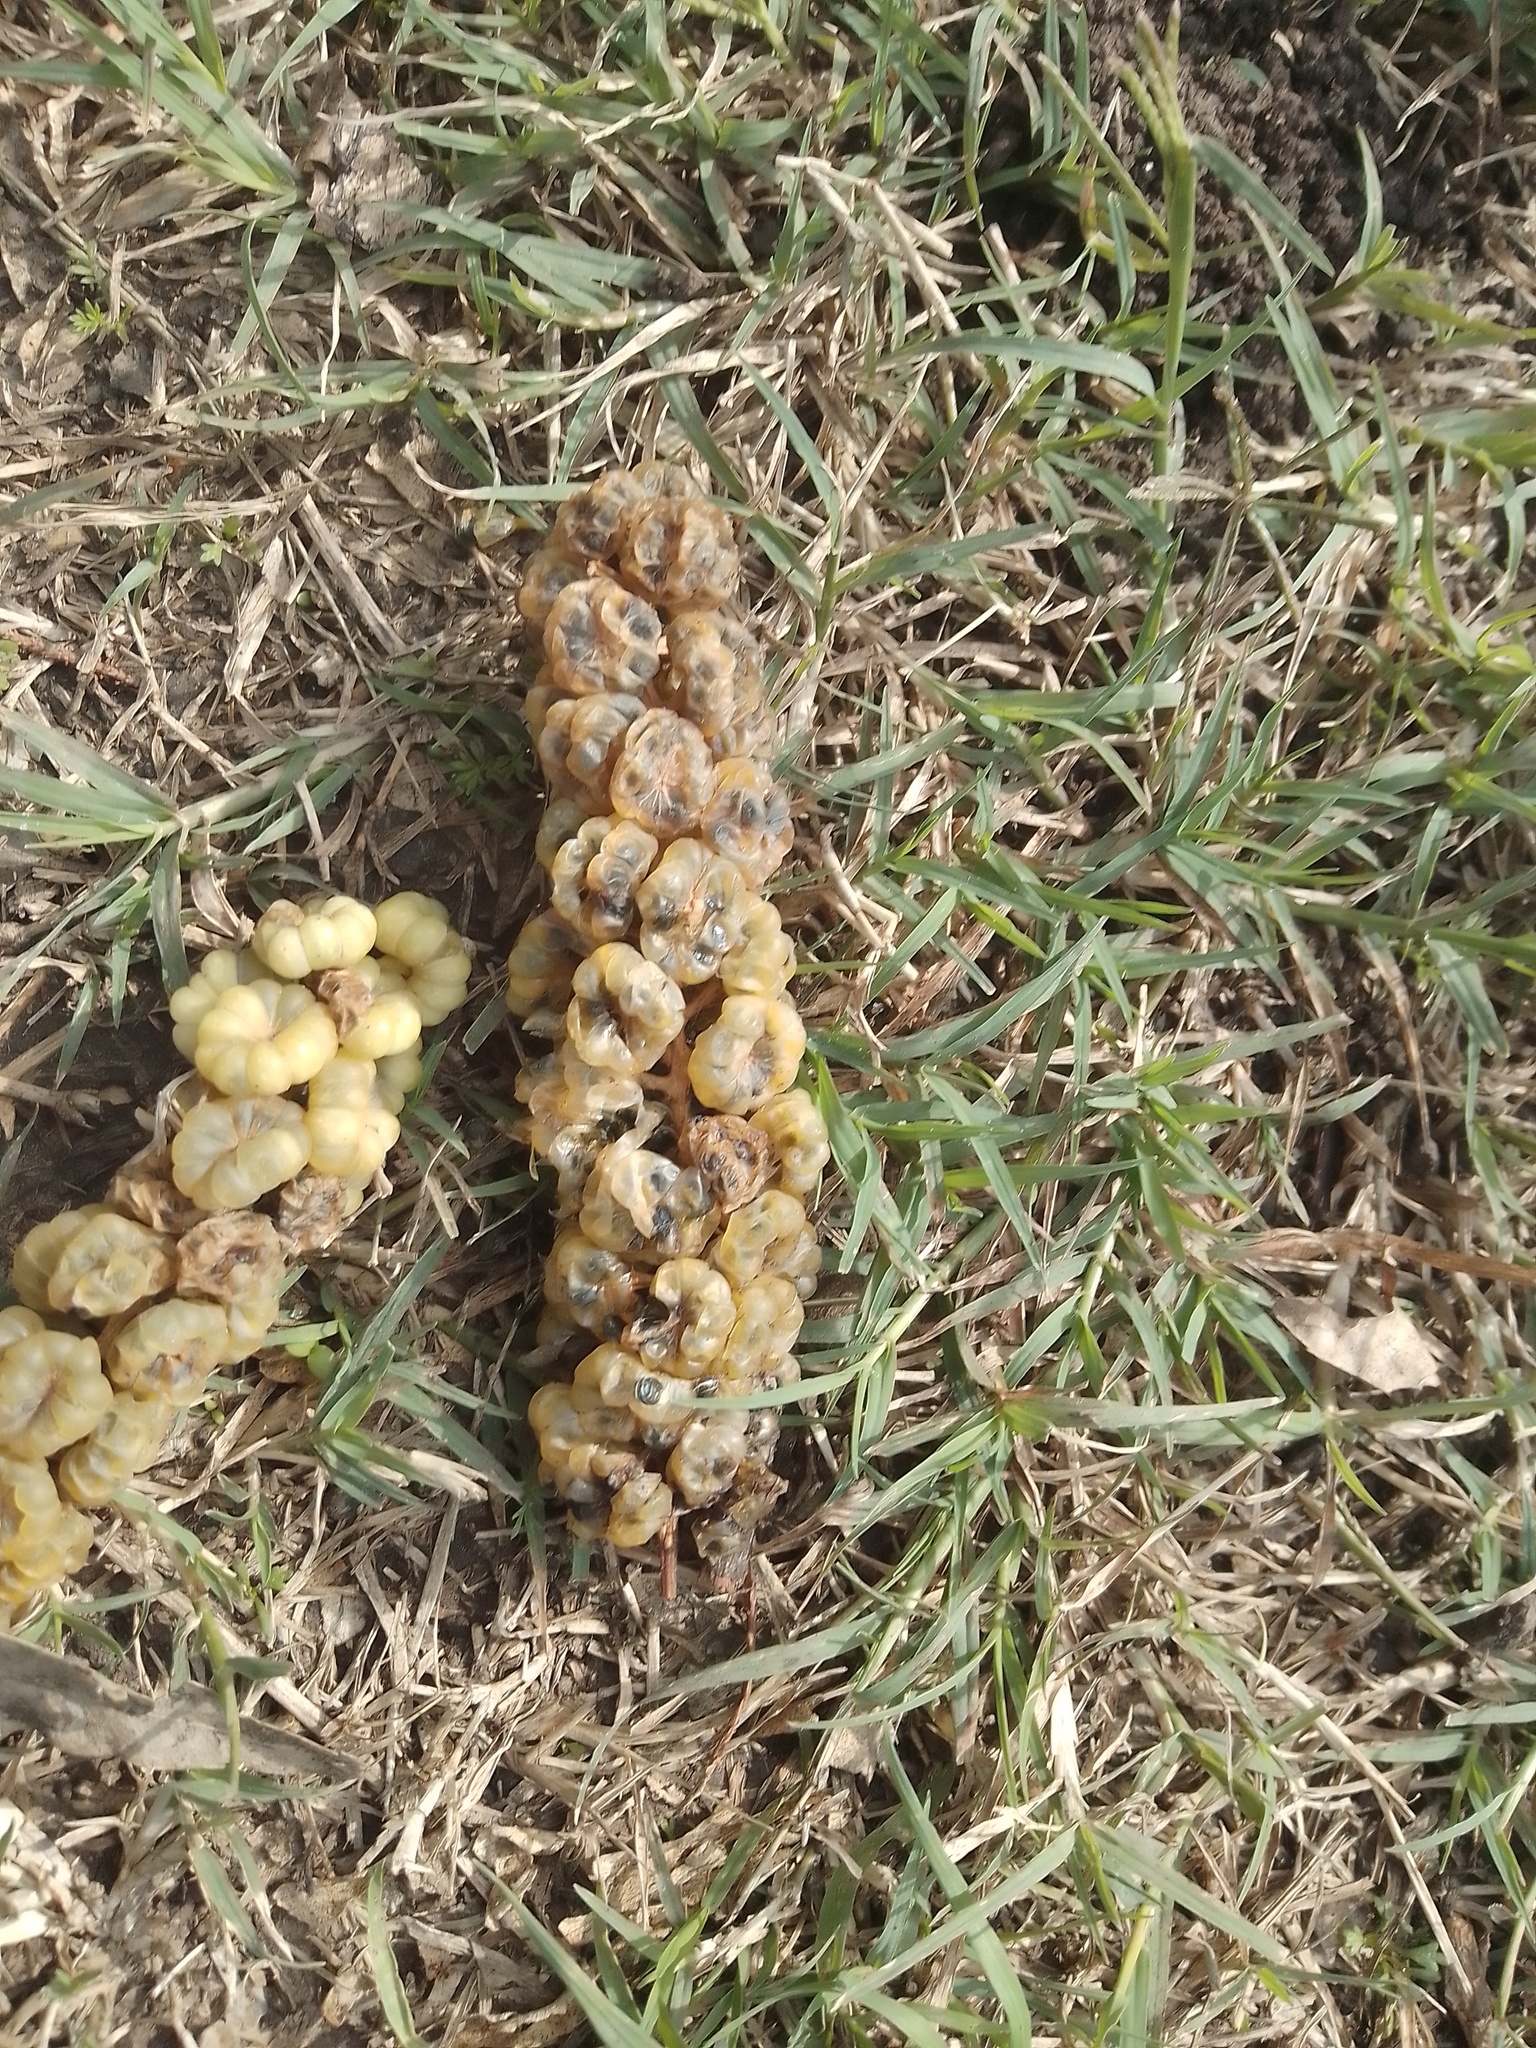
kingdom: Plantae
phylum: Tracheophyta
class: Magnoliopsida
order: Caryophyllales
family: Phytolaccaceae
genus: Phytolacca
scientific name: Phytolacca dioica
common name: Pokeweed
